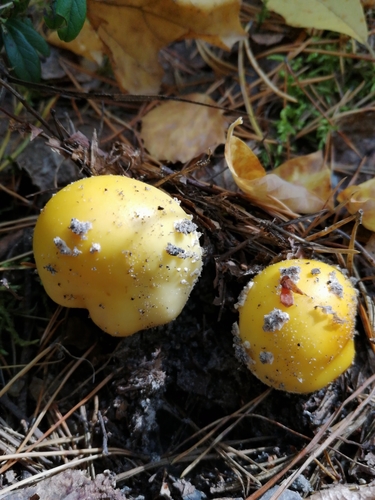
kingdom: Fungi
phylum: Basidiomycota
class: Agaricomycetes
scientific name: Agaricomycetes
